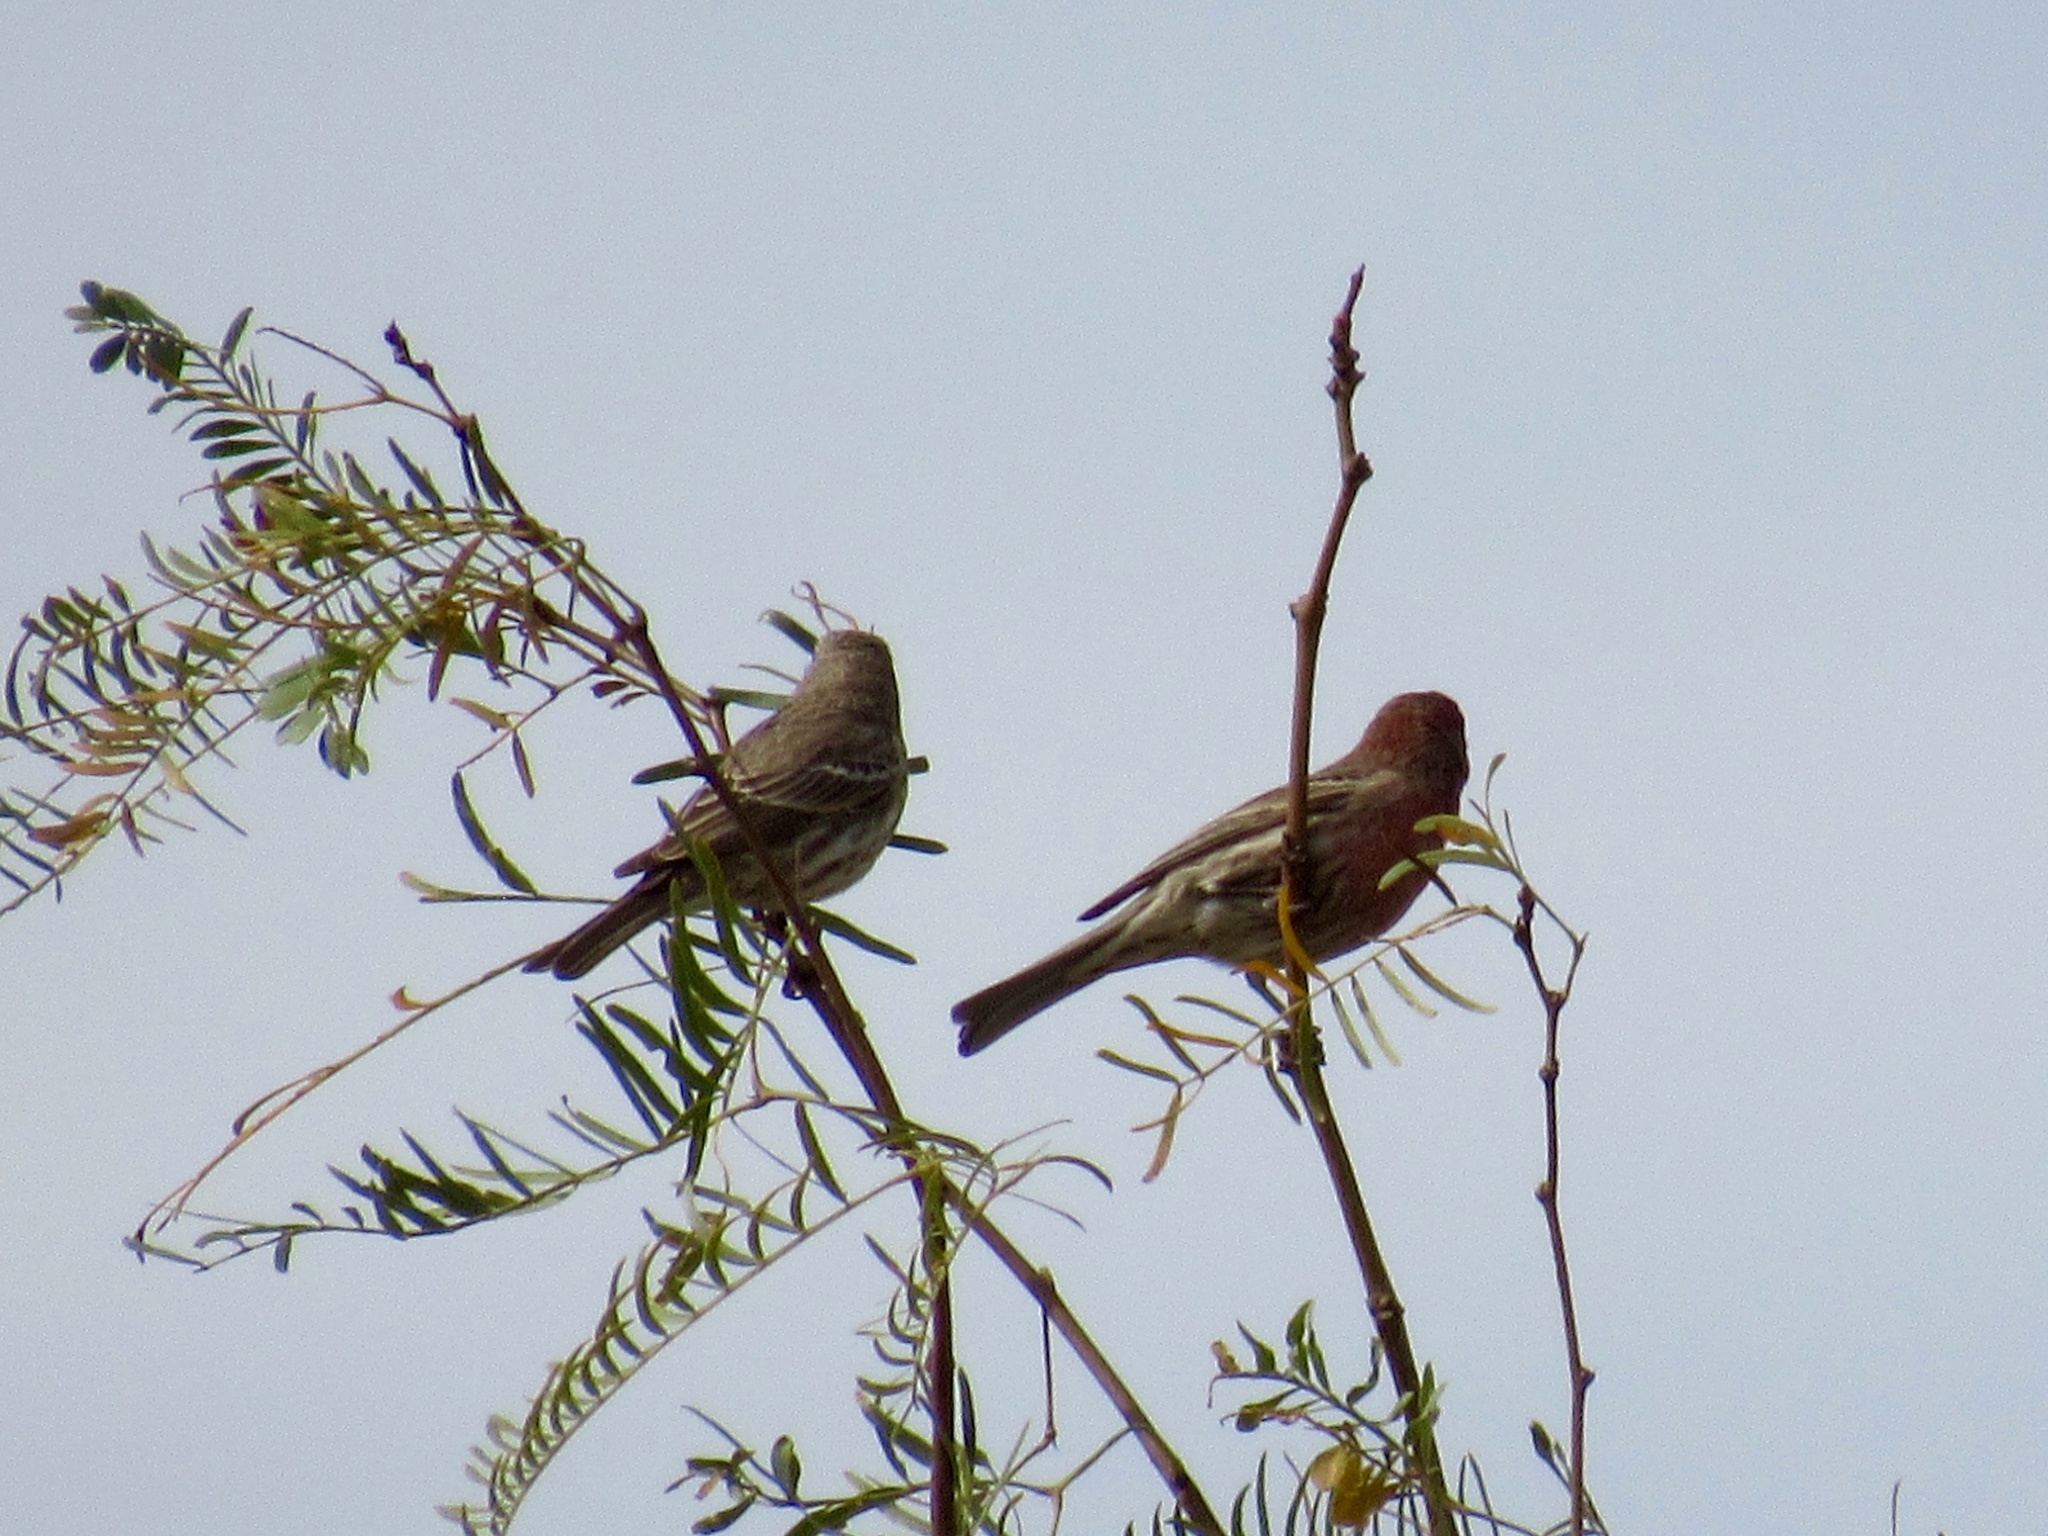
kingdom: Animalia
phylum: Chordata
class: Aves
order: Passeriformes
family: Fringillidae
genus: Haemorhous
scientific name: Haemorhous mexicanus
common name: House finch
